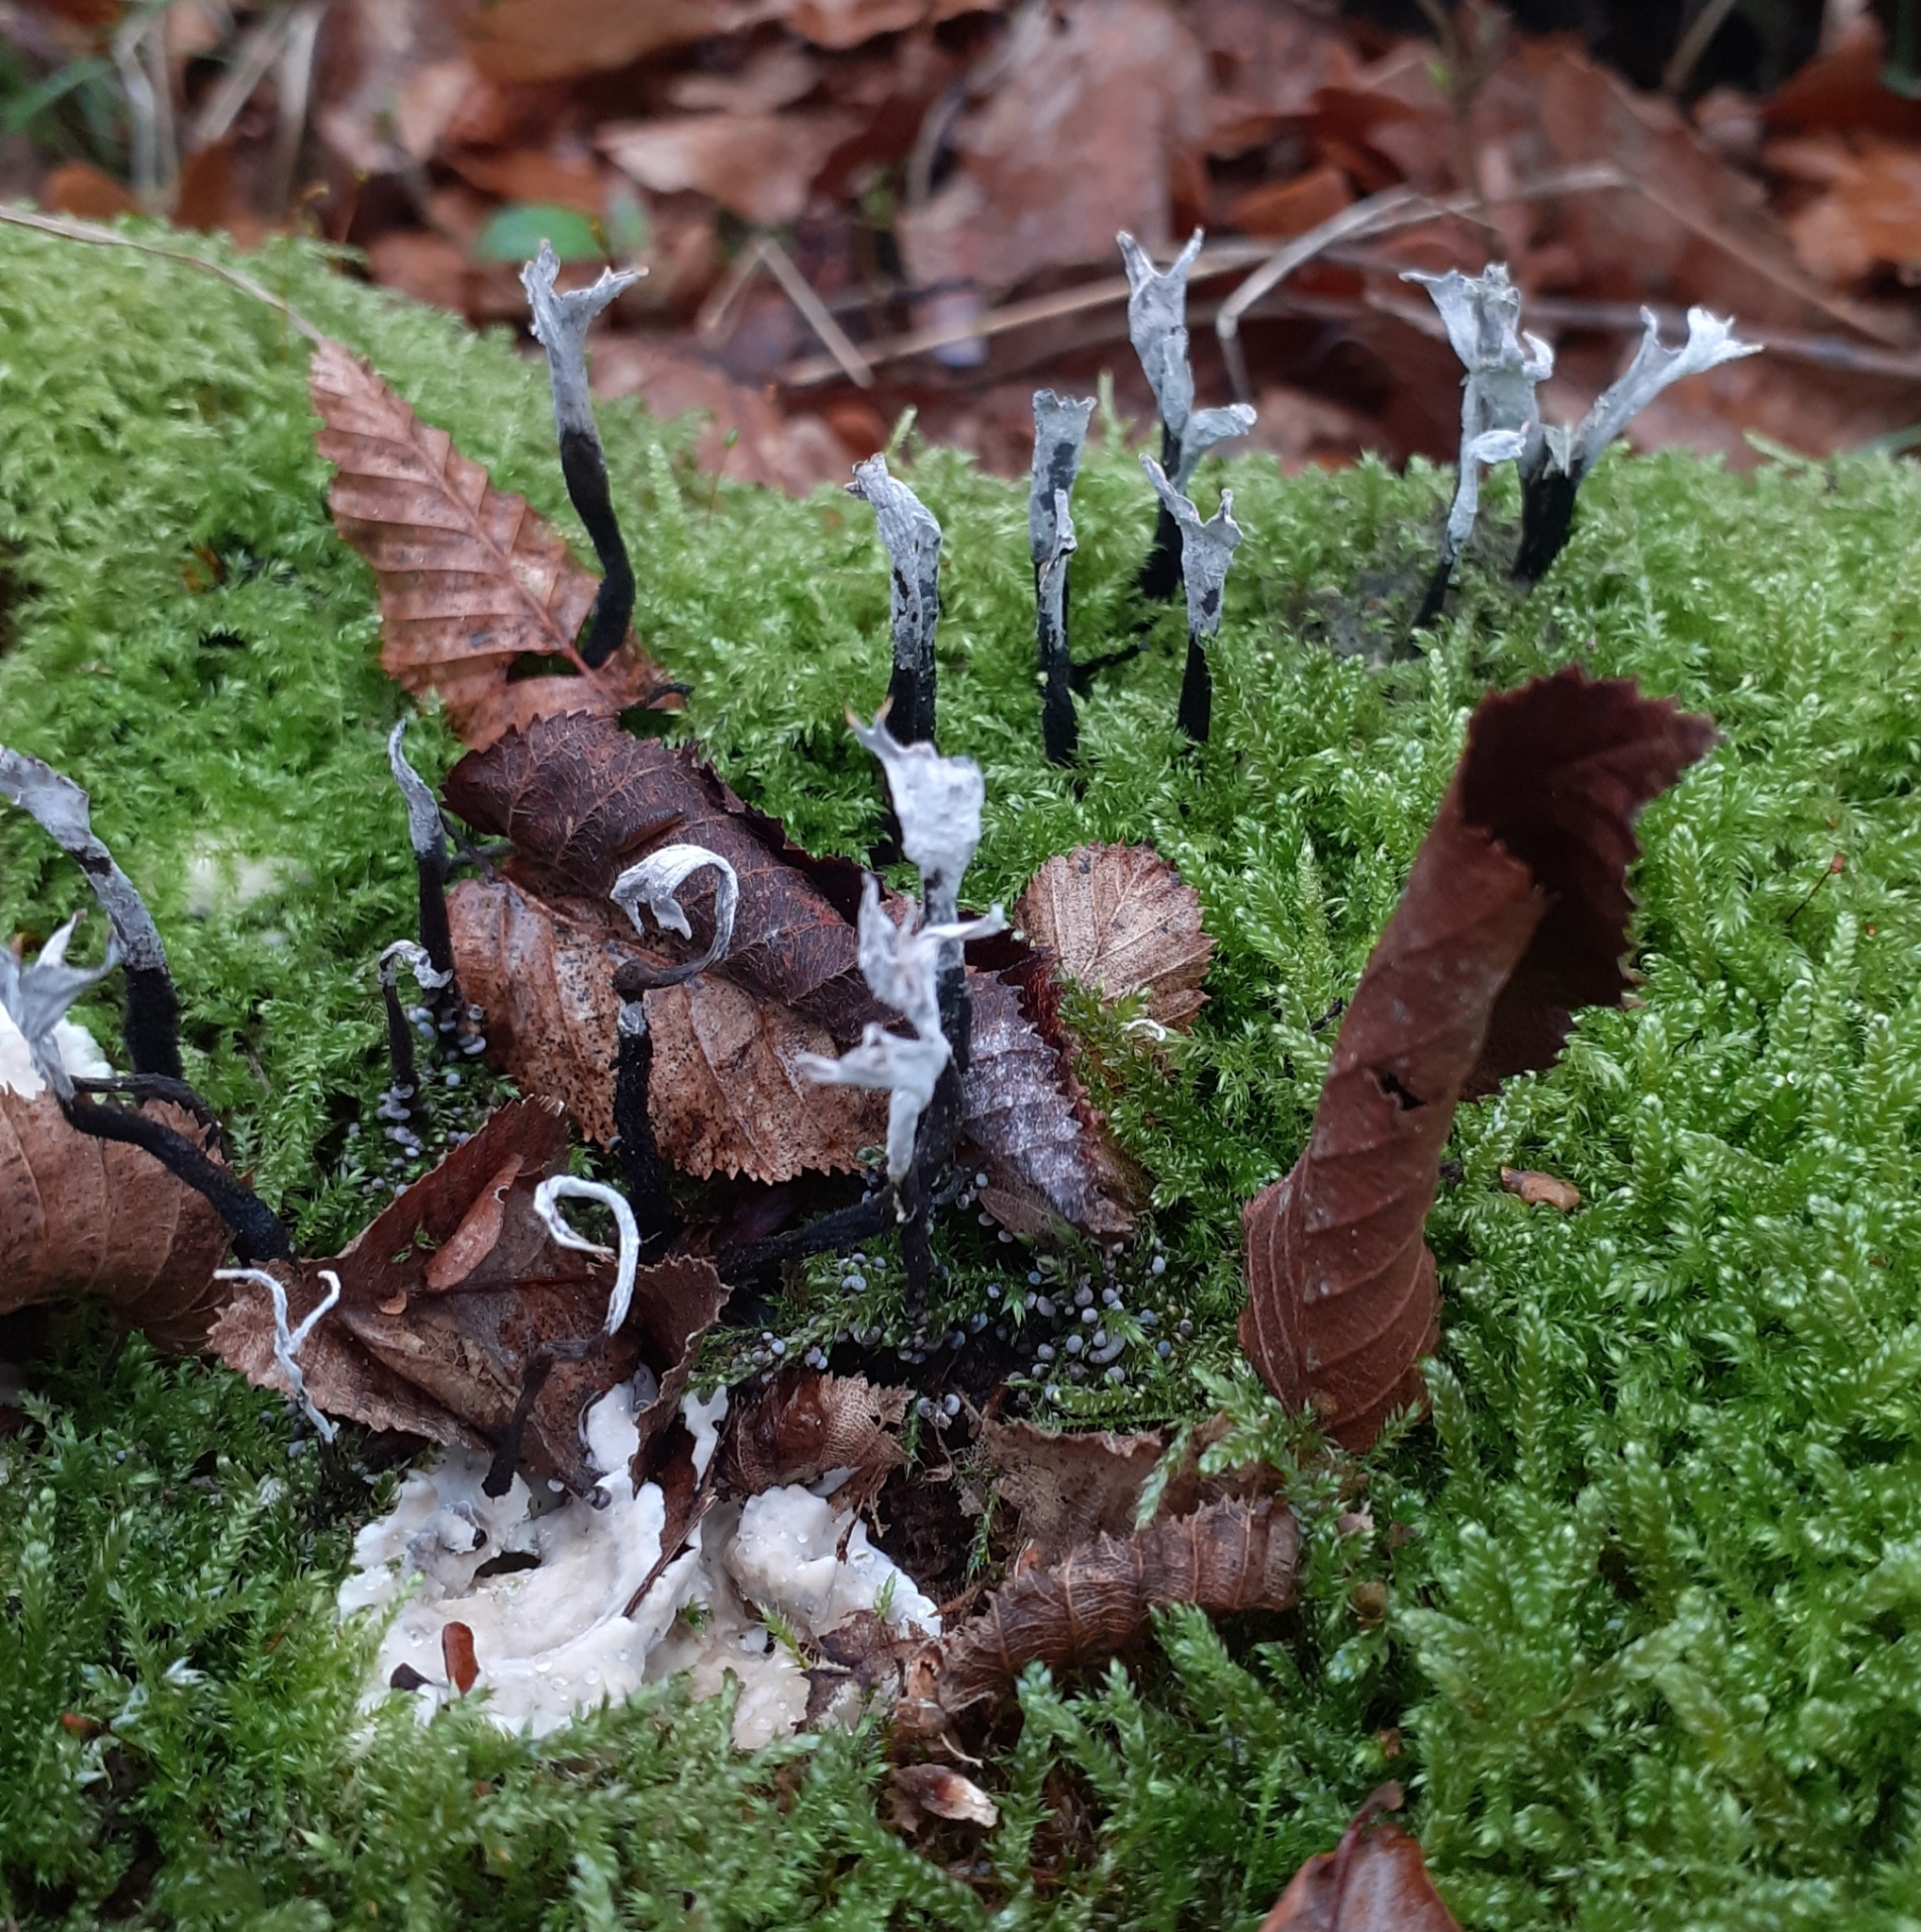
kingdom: Fungi
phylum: Ascomycota
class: Sordariomycetes
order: Xylariales
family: Xylariaceae
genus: Xylaria
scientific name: Xylaria hypoxylon
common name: Candle-snuff fungus
